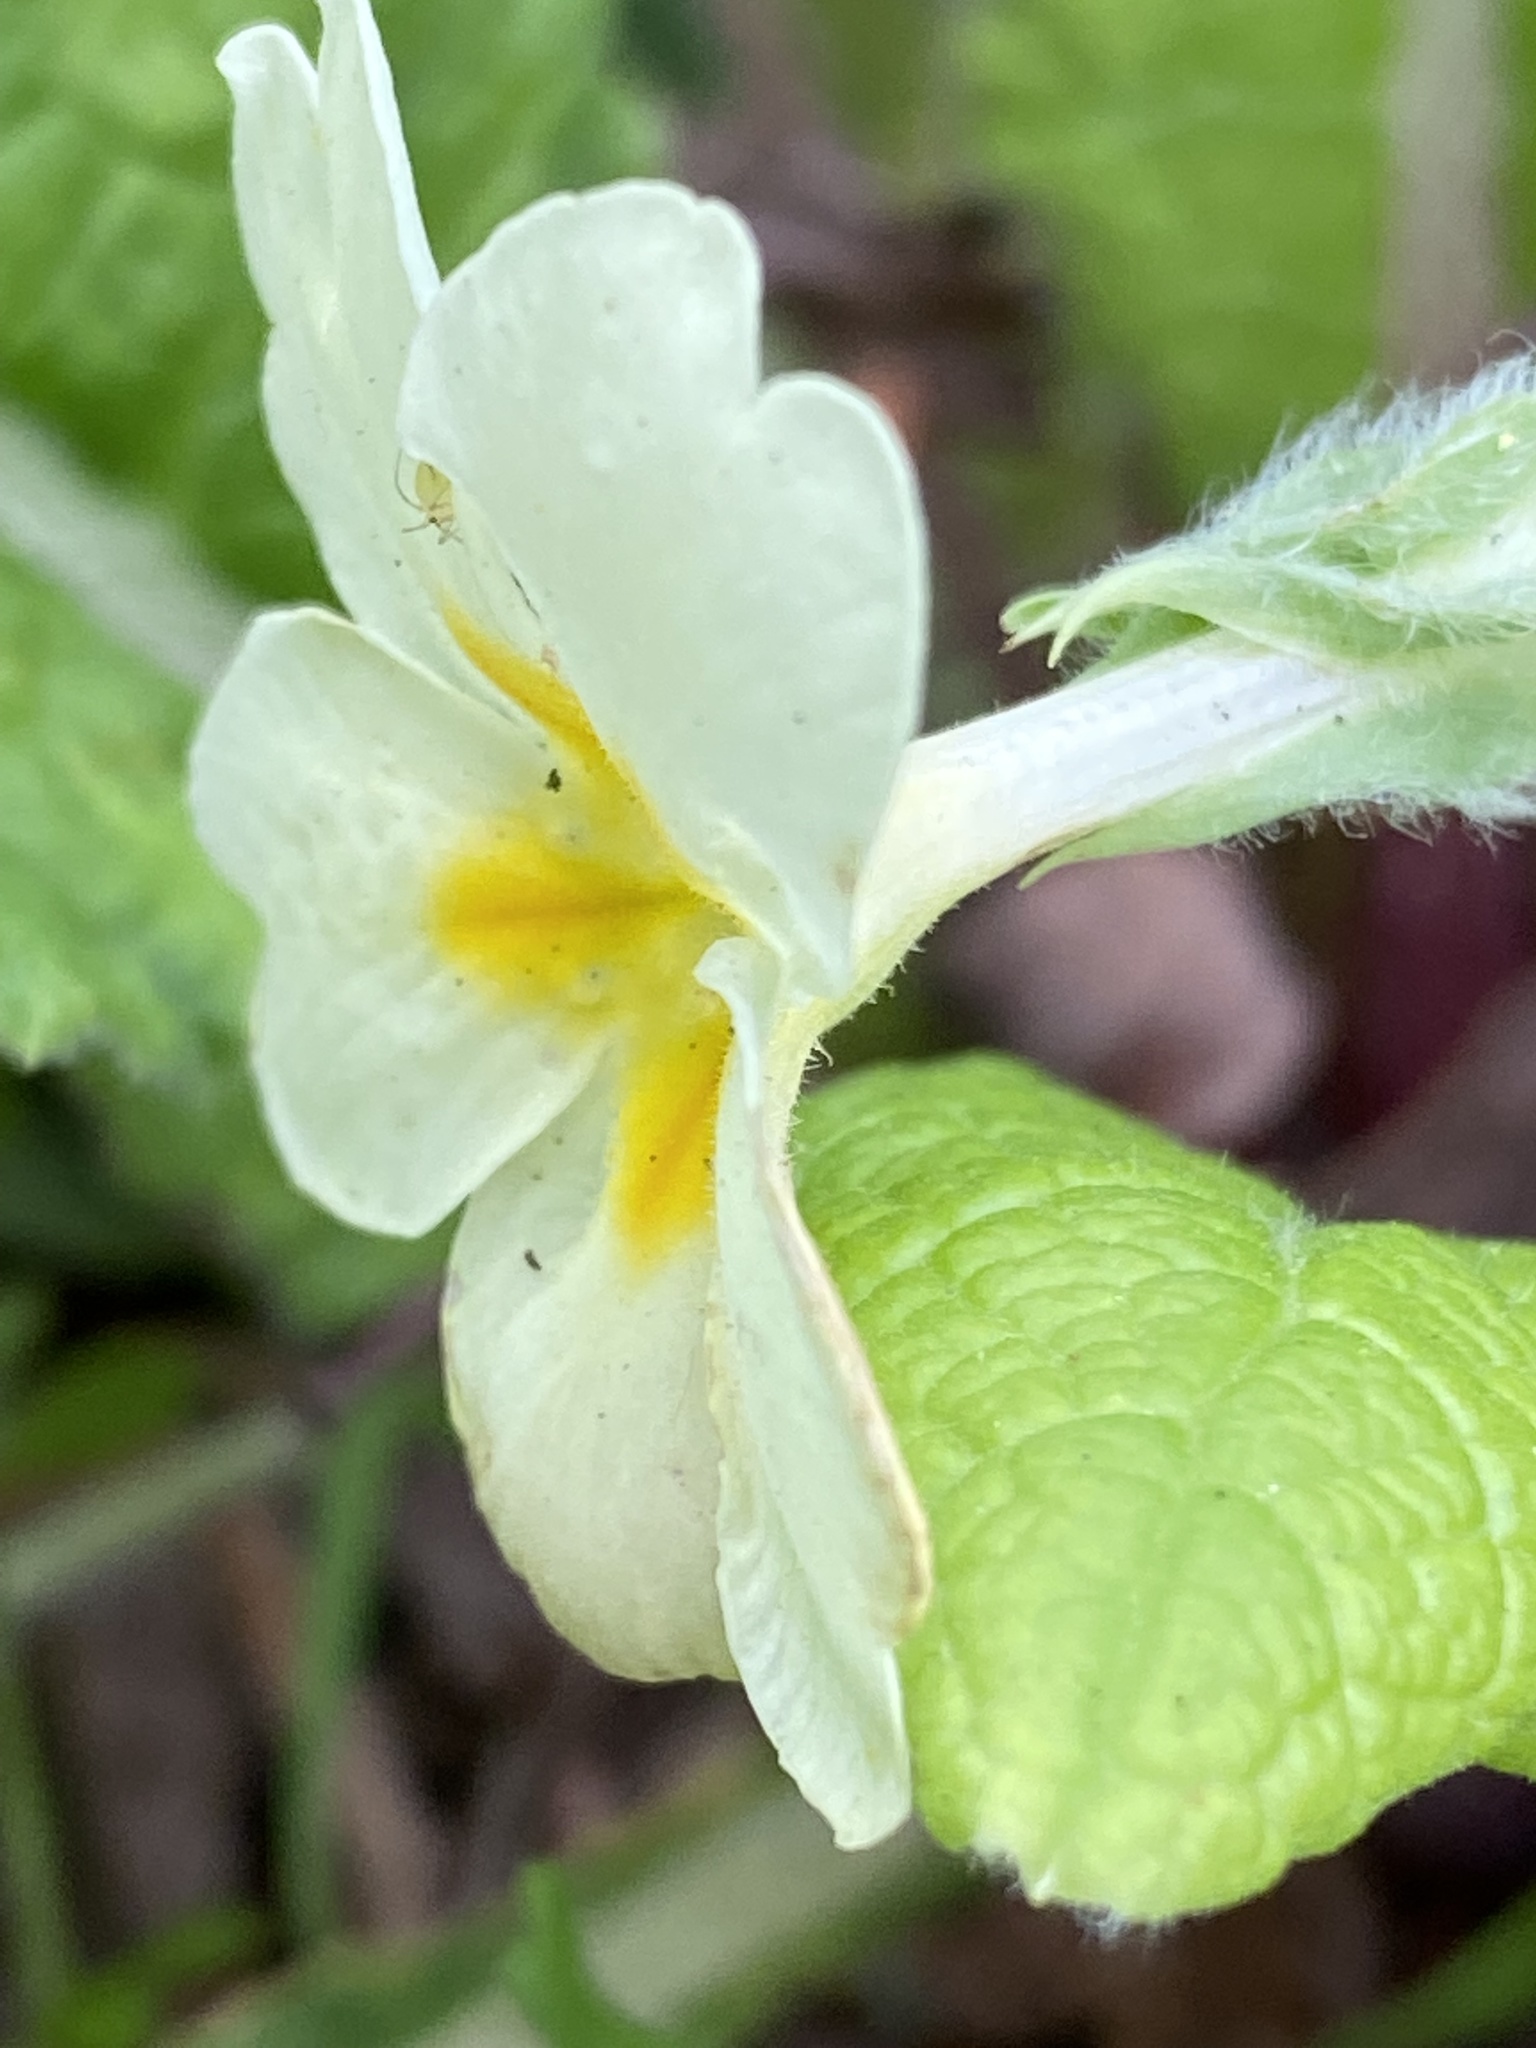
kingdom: Plantae
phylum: Tracheophyta
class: Magnoliopsida
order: Ericales
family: Primulaceae
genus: Primula
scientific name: Primula vulgaris
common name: Primrose
